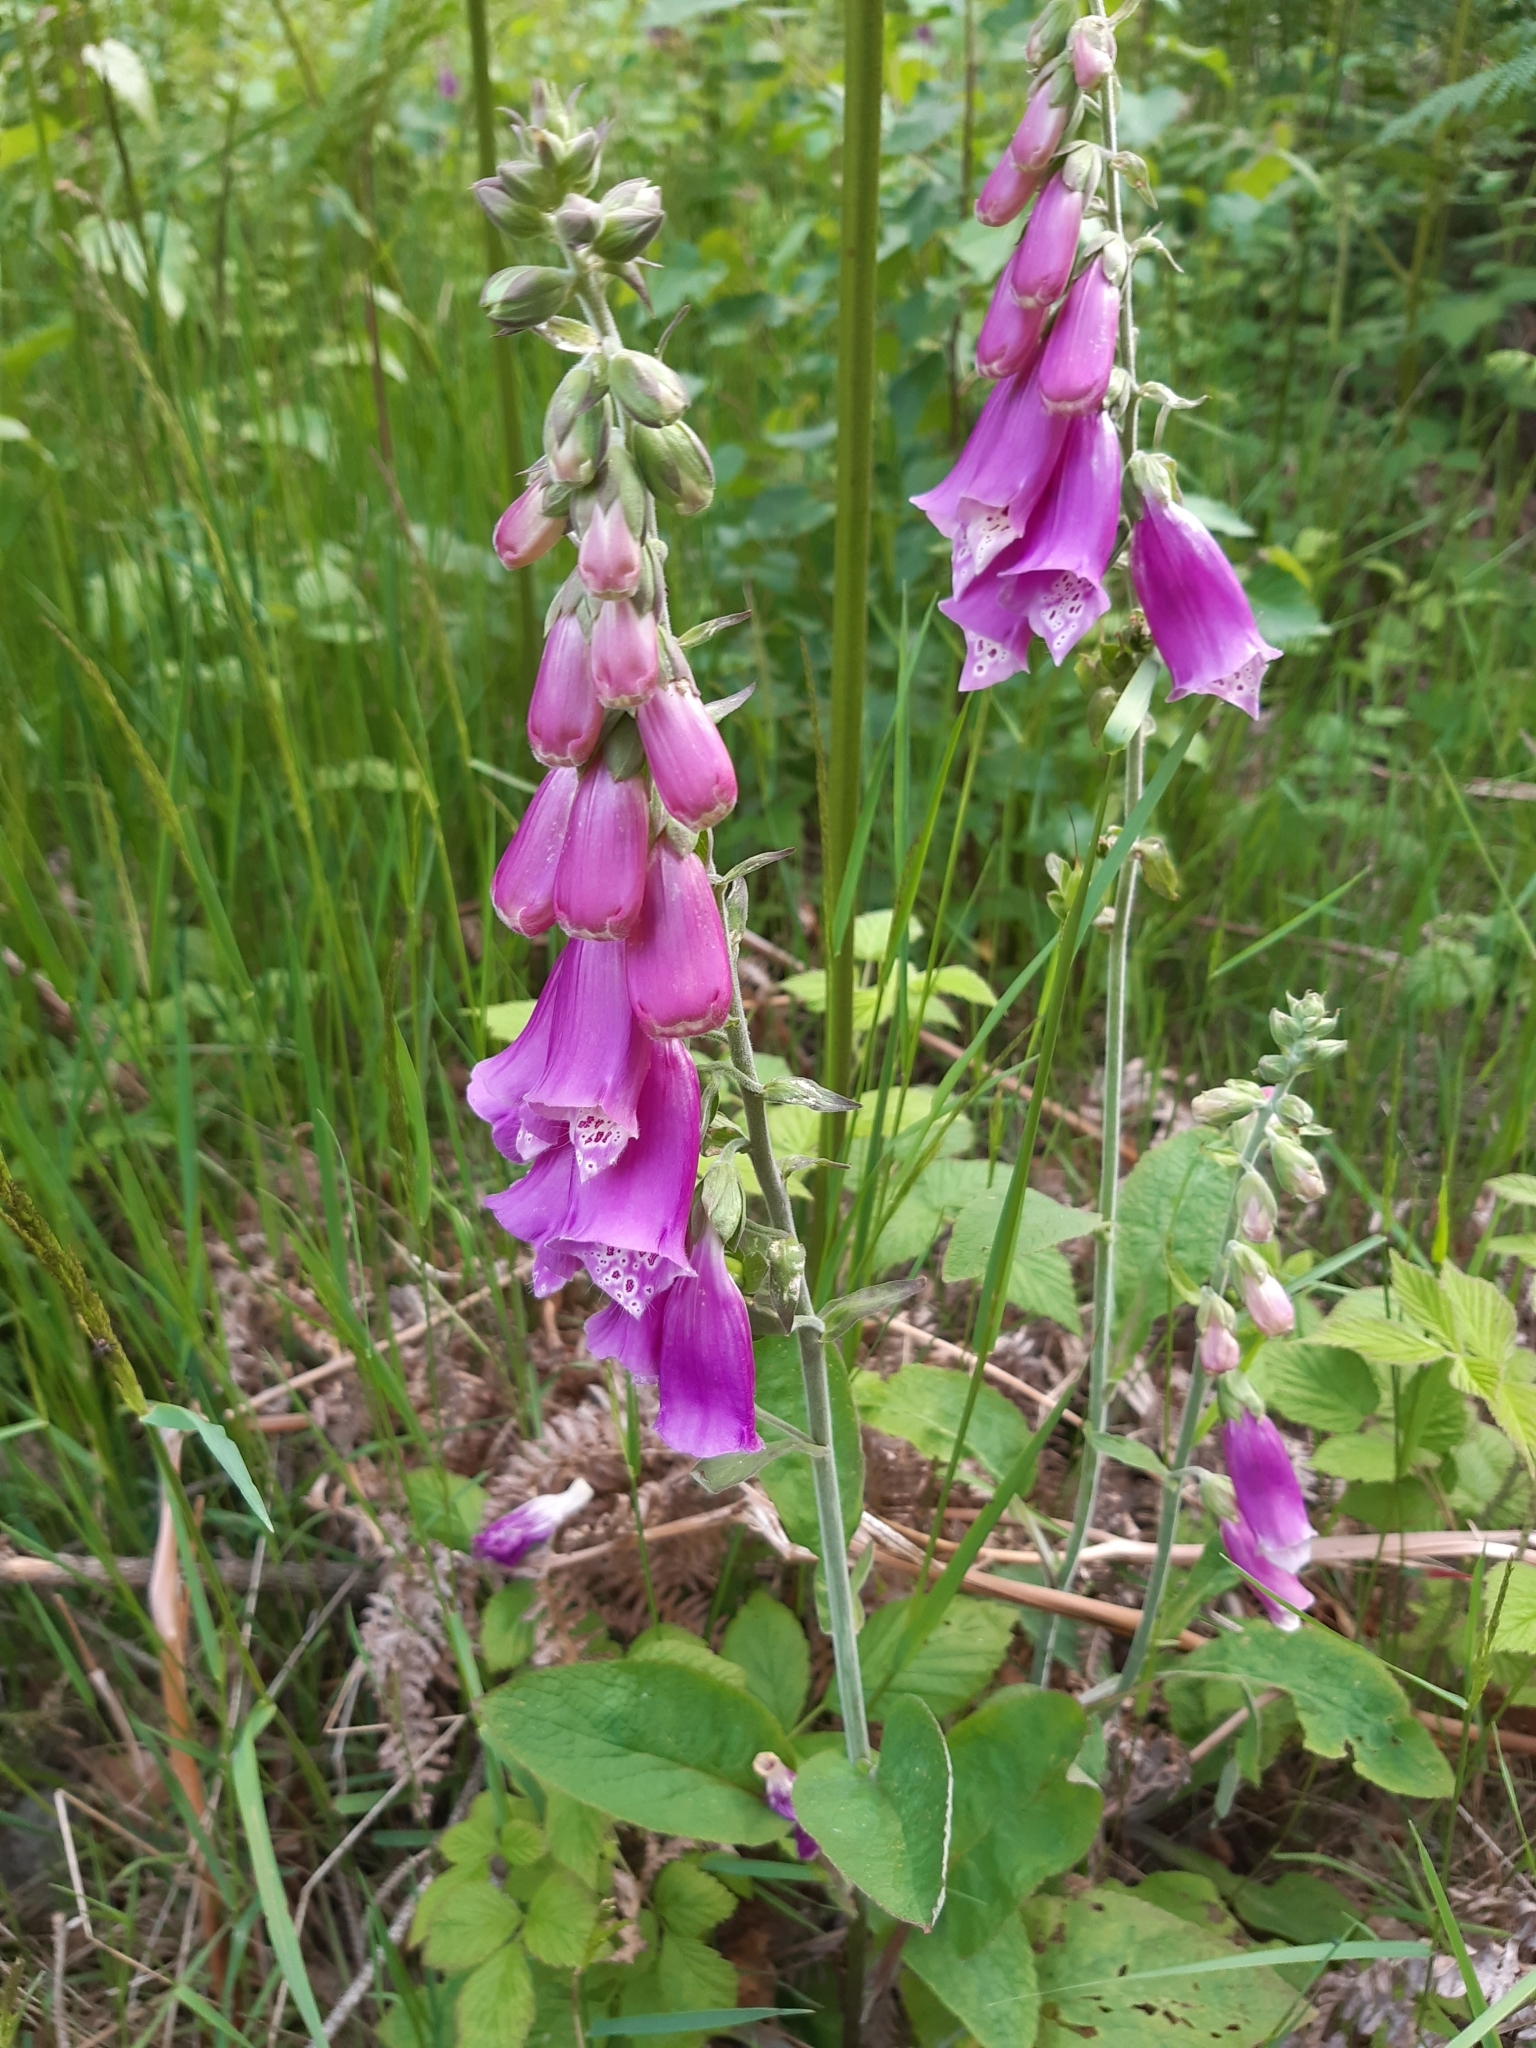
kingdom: Plantae
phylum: Tracheophyta
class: Magnoliopsida
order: Lamiales
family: Plantaginaceae
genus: Digitalis
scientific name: Digitalis purpurea
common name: Foxglove
